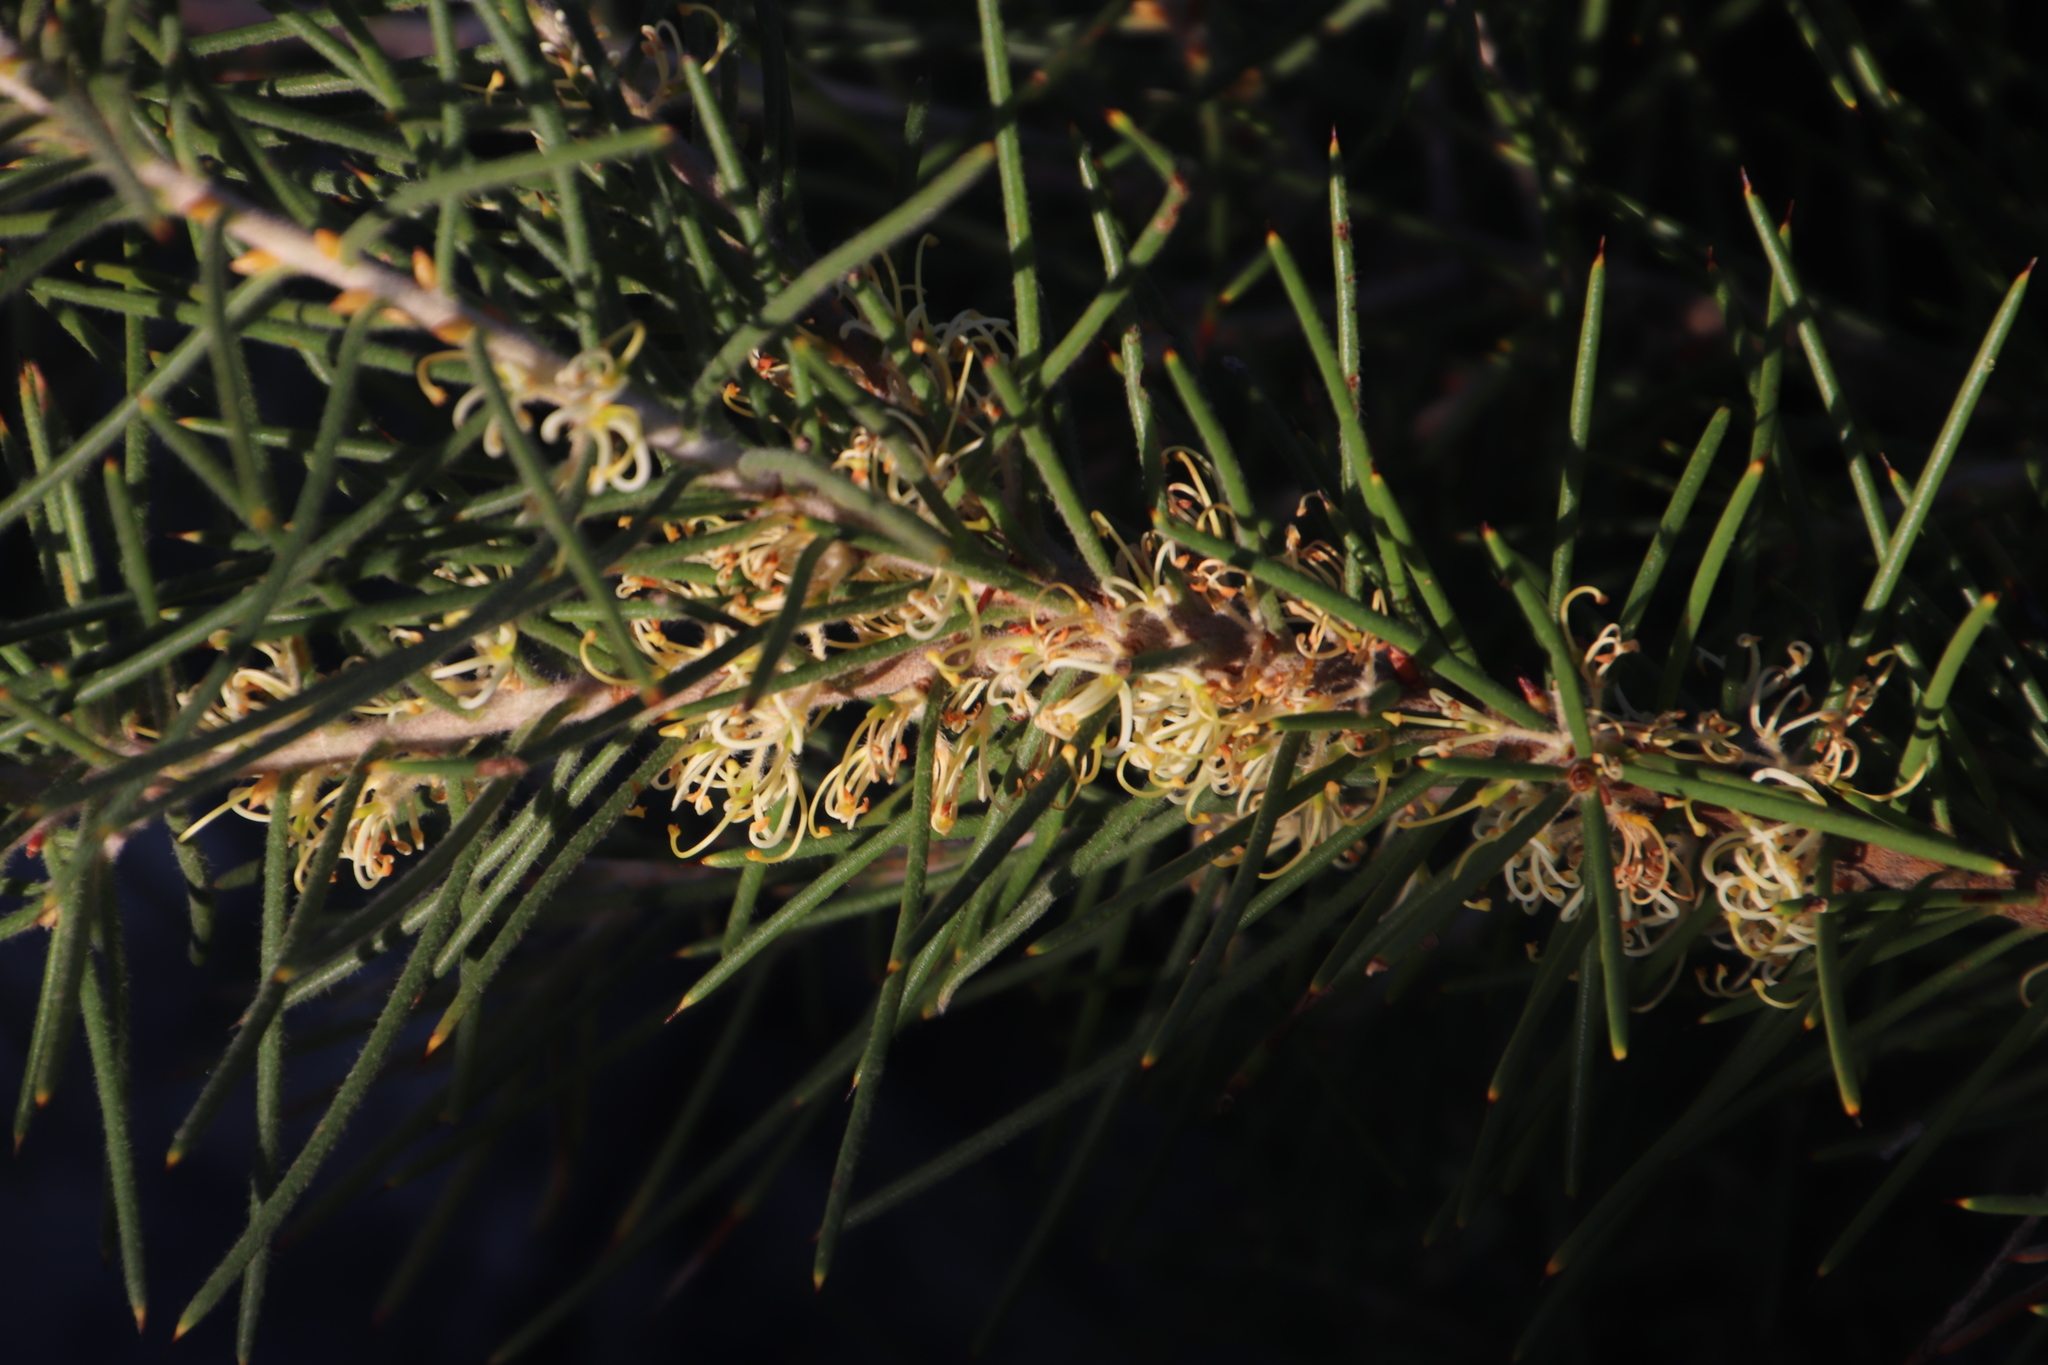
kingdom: Plantae
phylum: Tracheophyta
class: Magnoliopsida
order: Proteales
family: Proteaceae
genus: Hakea
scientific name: Hakea gibbosa
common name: Rock hakea
